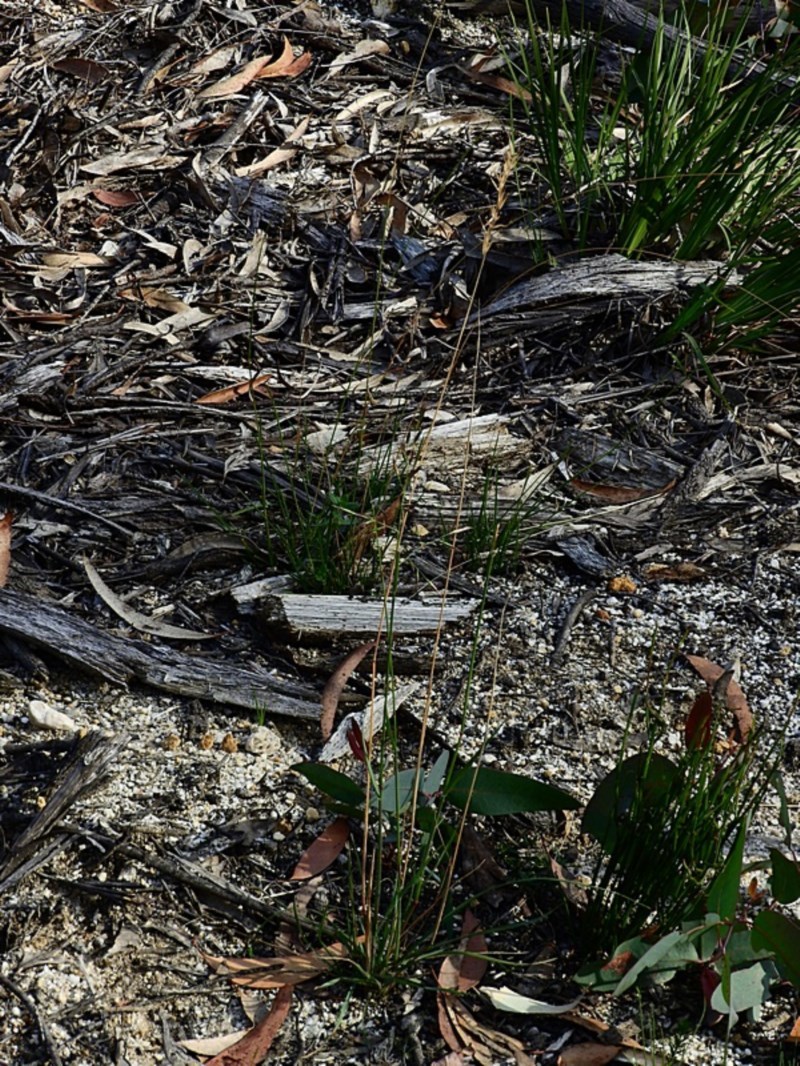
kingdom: Plantae
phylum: Tracheophyta
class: Liliopsida
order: Poales
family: Poaceae
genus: Rytidosperma
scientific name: Rytidosperma tenuius
